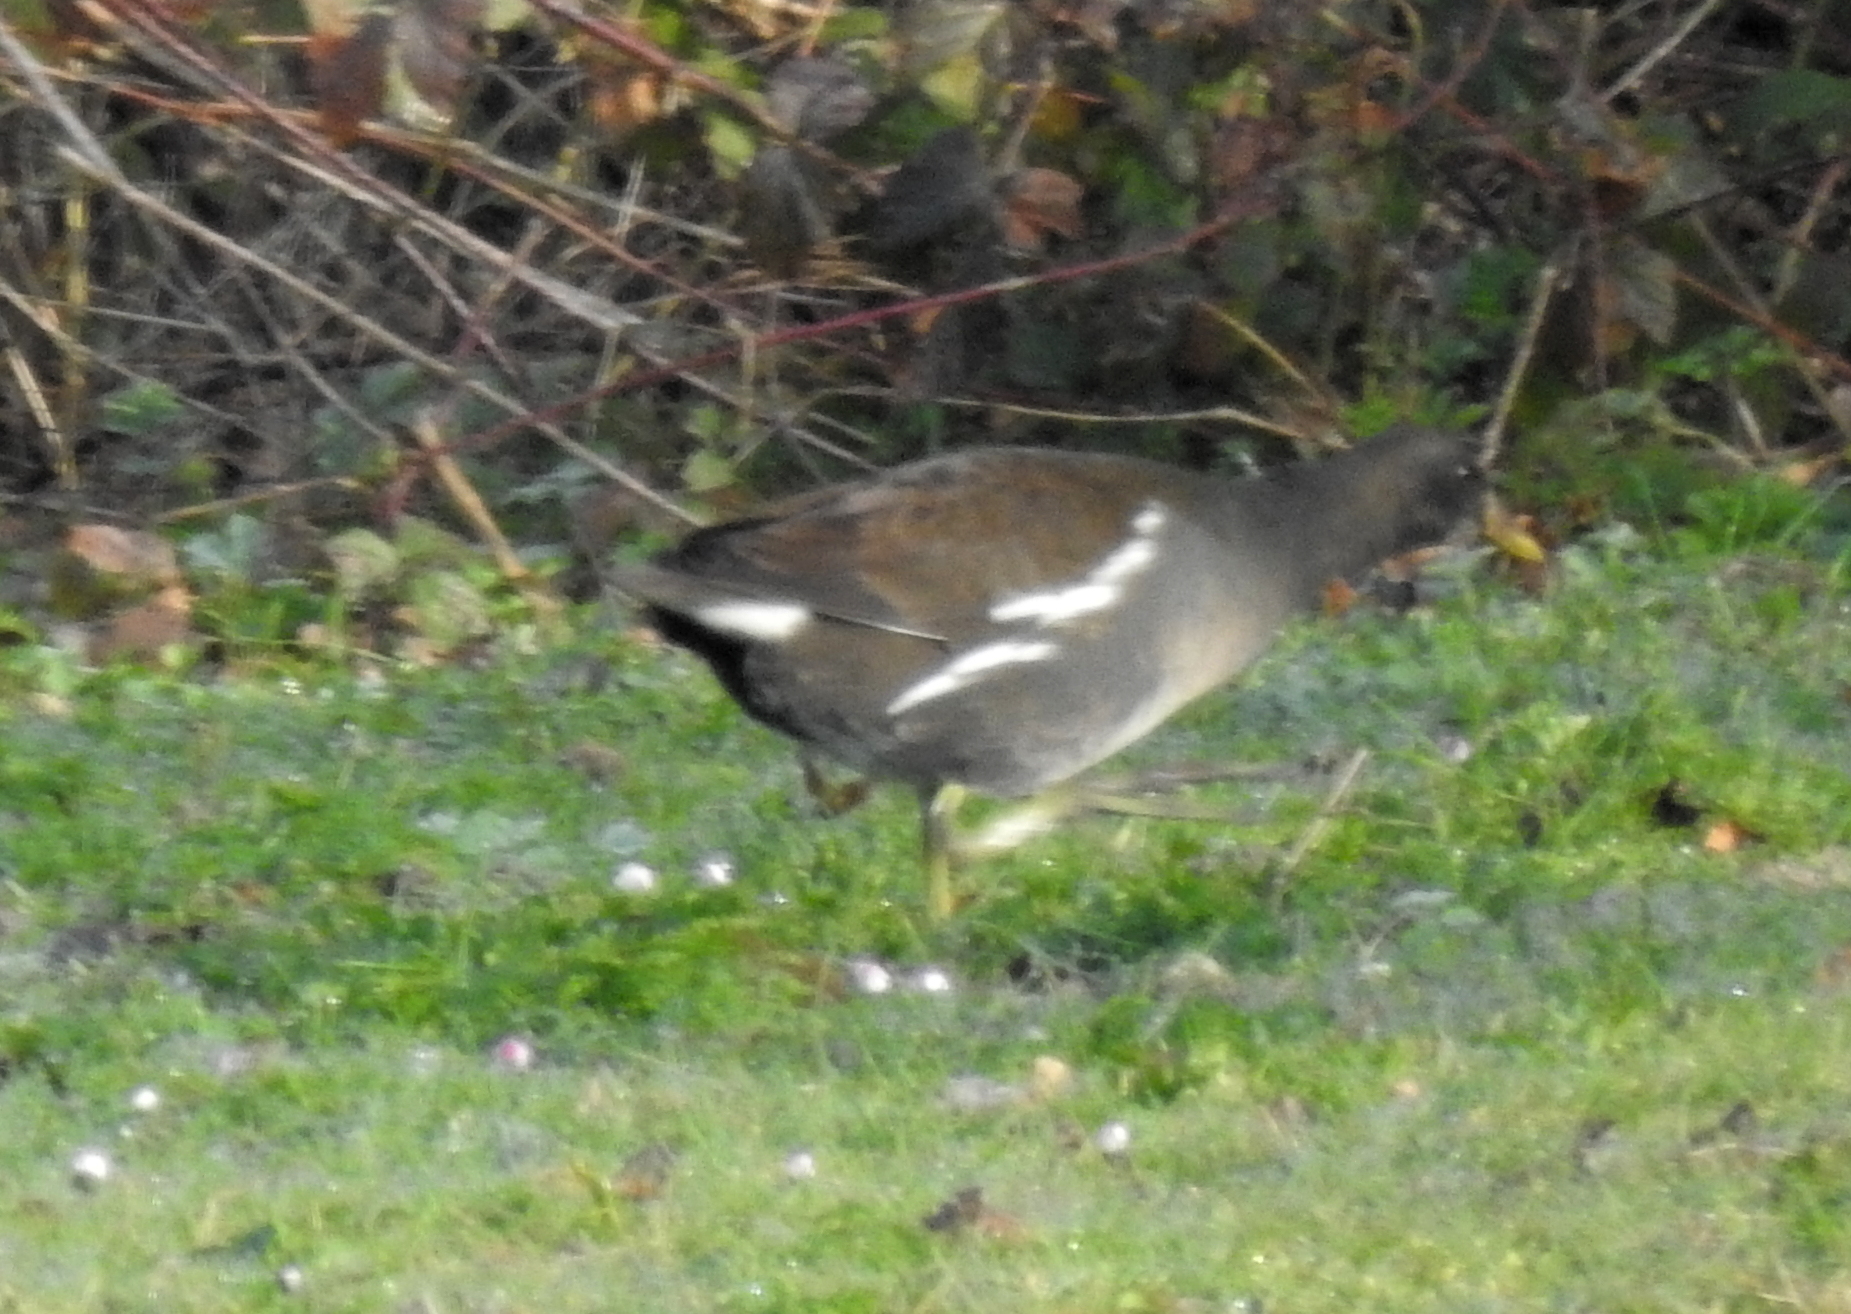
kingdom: Animalia
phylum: Chordata
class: Aves
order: Gruiformes
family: Rallidae
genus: Gallinula
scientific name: Gallinula chloropus
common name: Common moorhen
